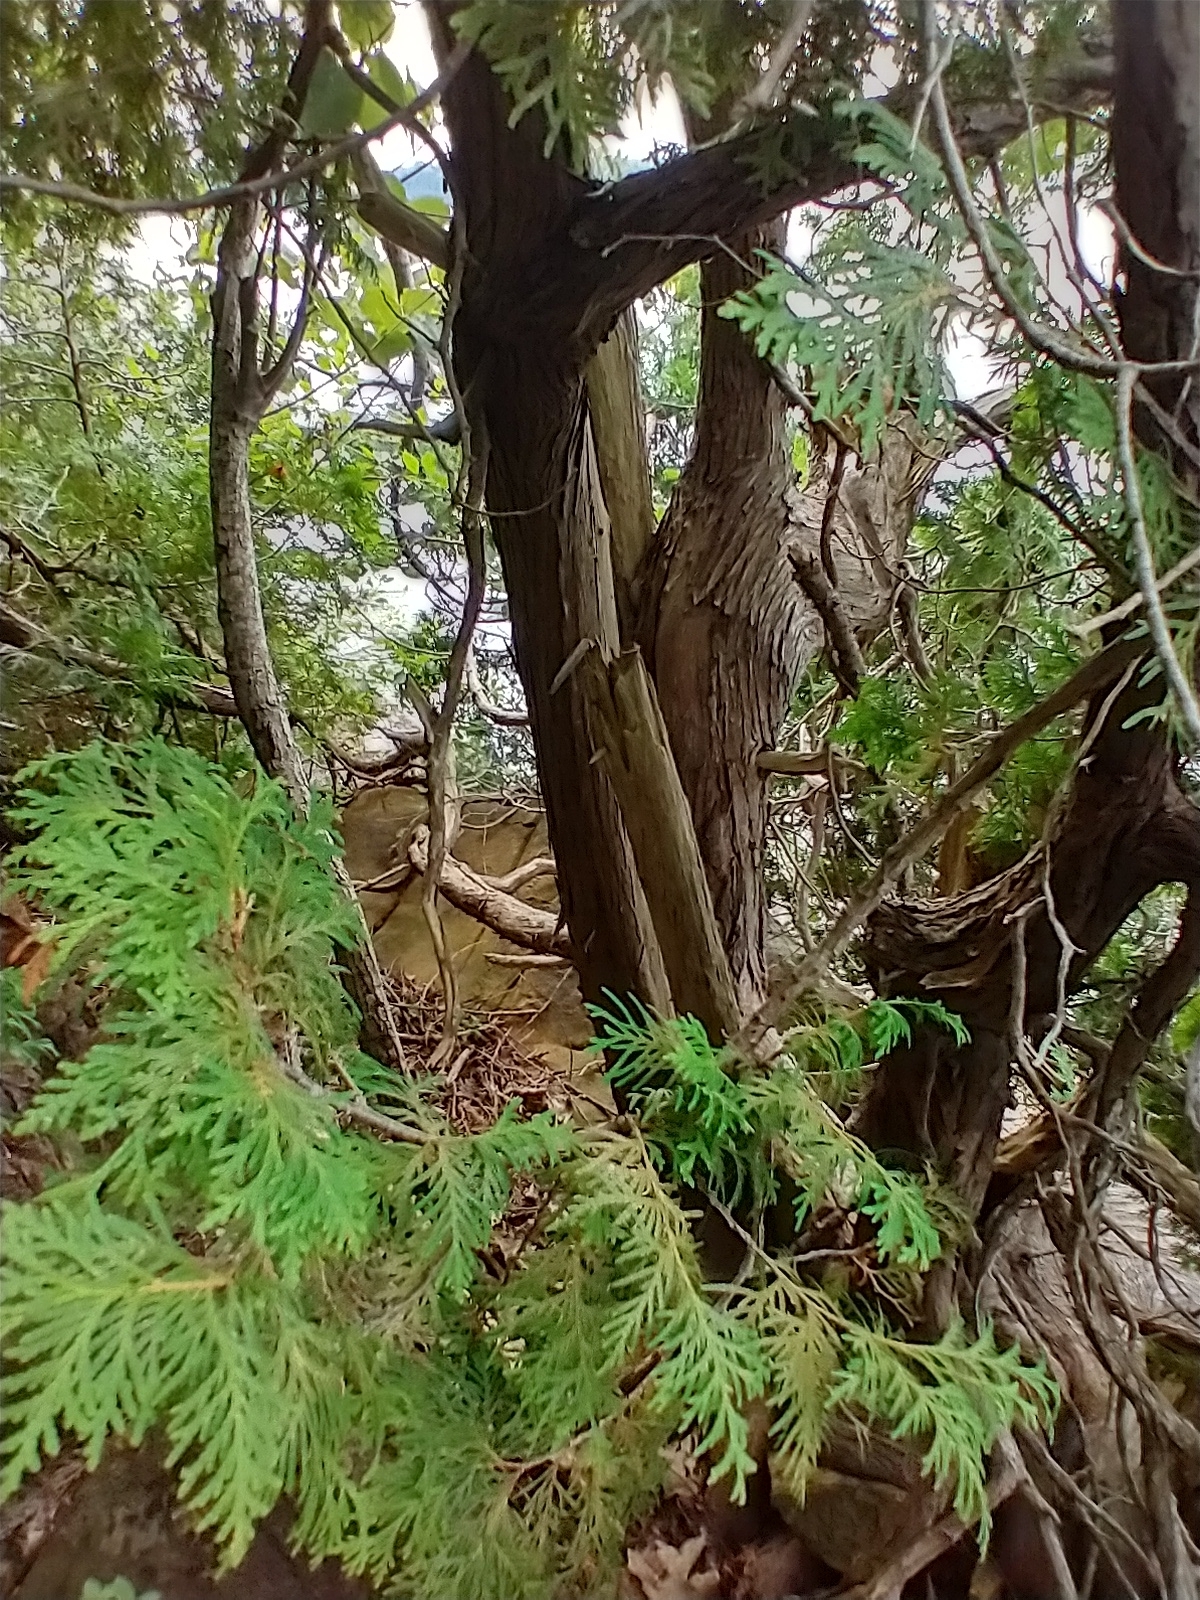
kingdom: Plantae
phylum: Tracheophyta
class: Pinopsida
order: Pinales
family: Cupressaceae
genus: Thuja
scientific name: Thuja occidentalis
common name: Northern white-cedar
